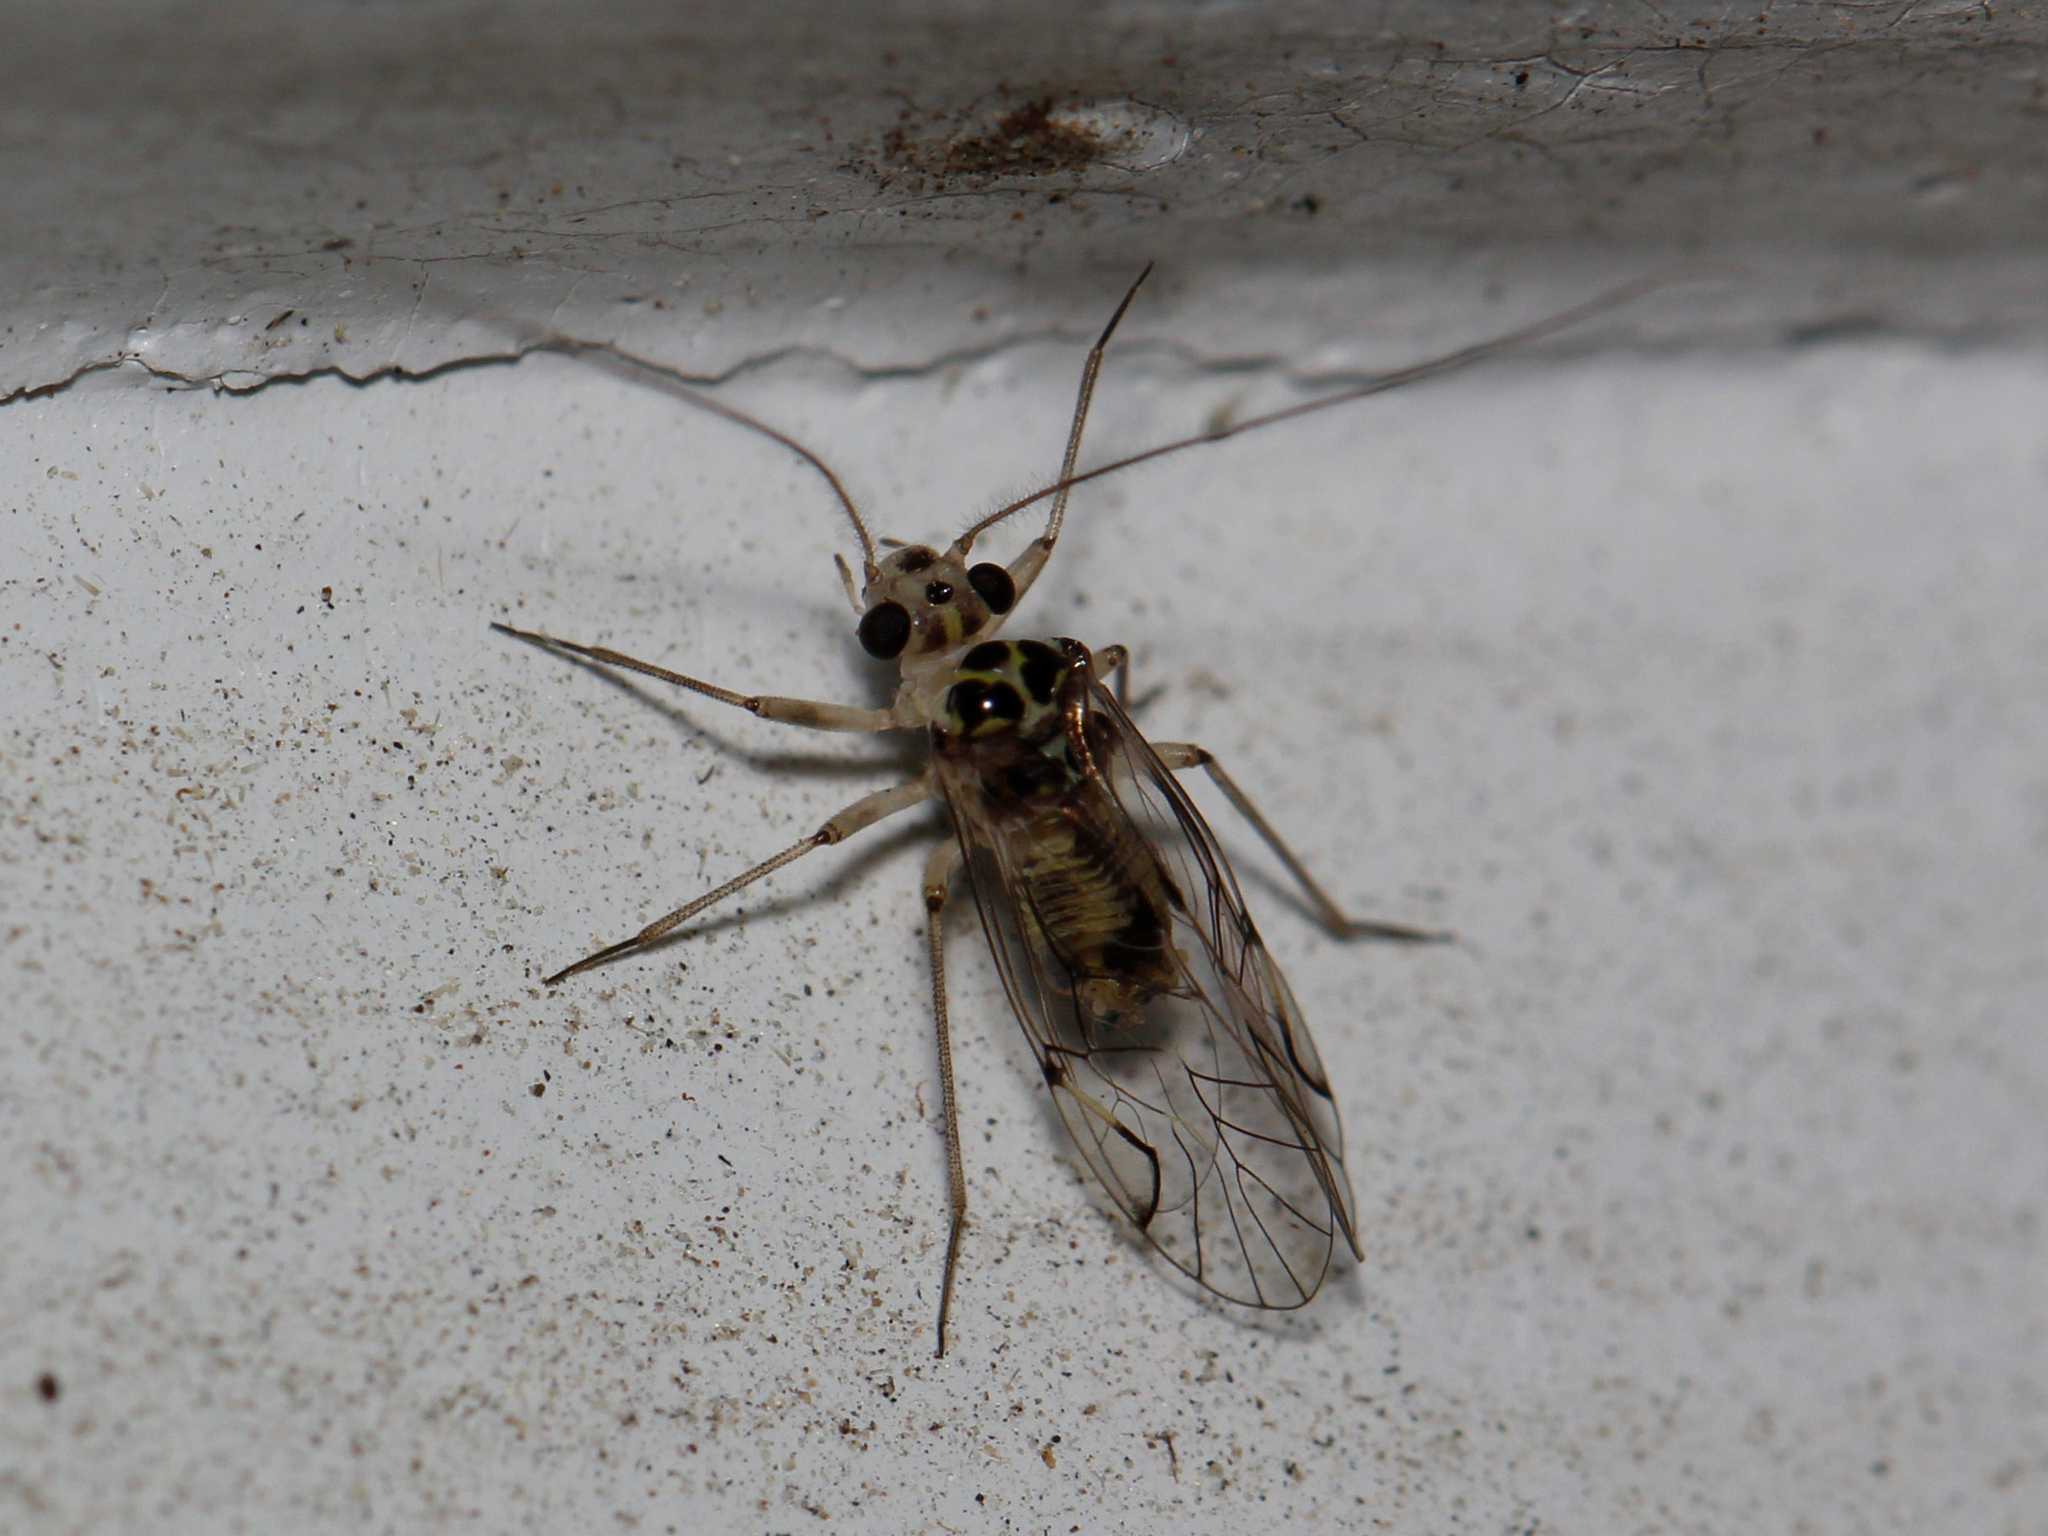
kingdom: Animalia
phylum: Arthropoda
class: Insecta
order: Psocodea
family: Psocidae
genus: Metylophorus
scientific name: Metylophorus purus
